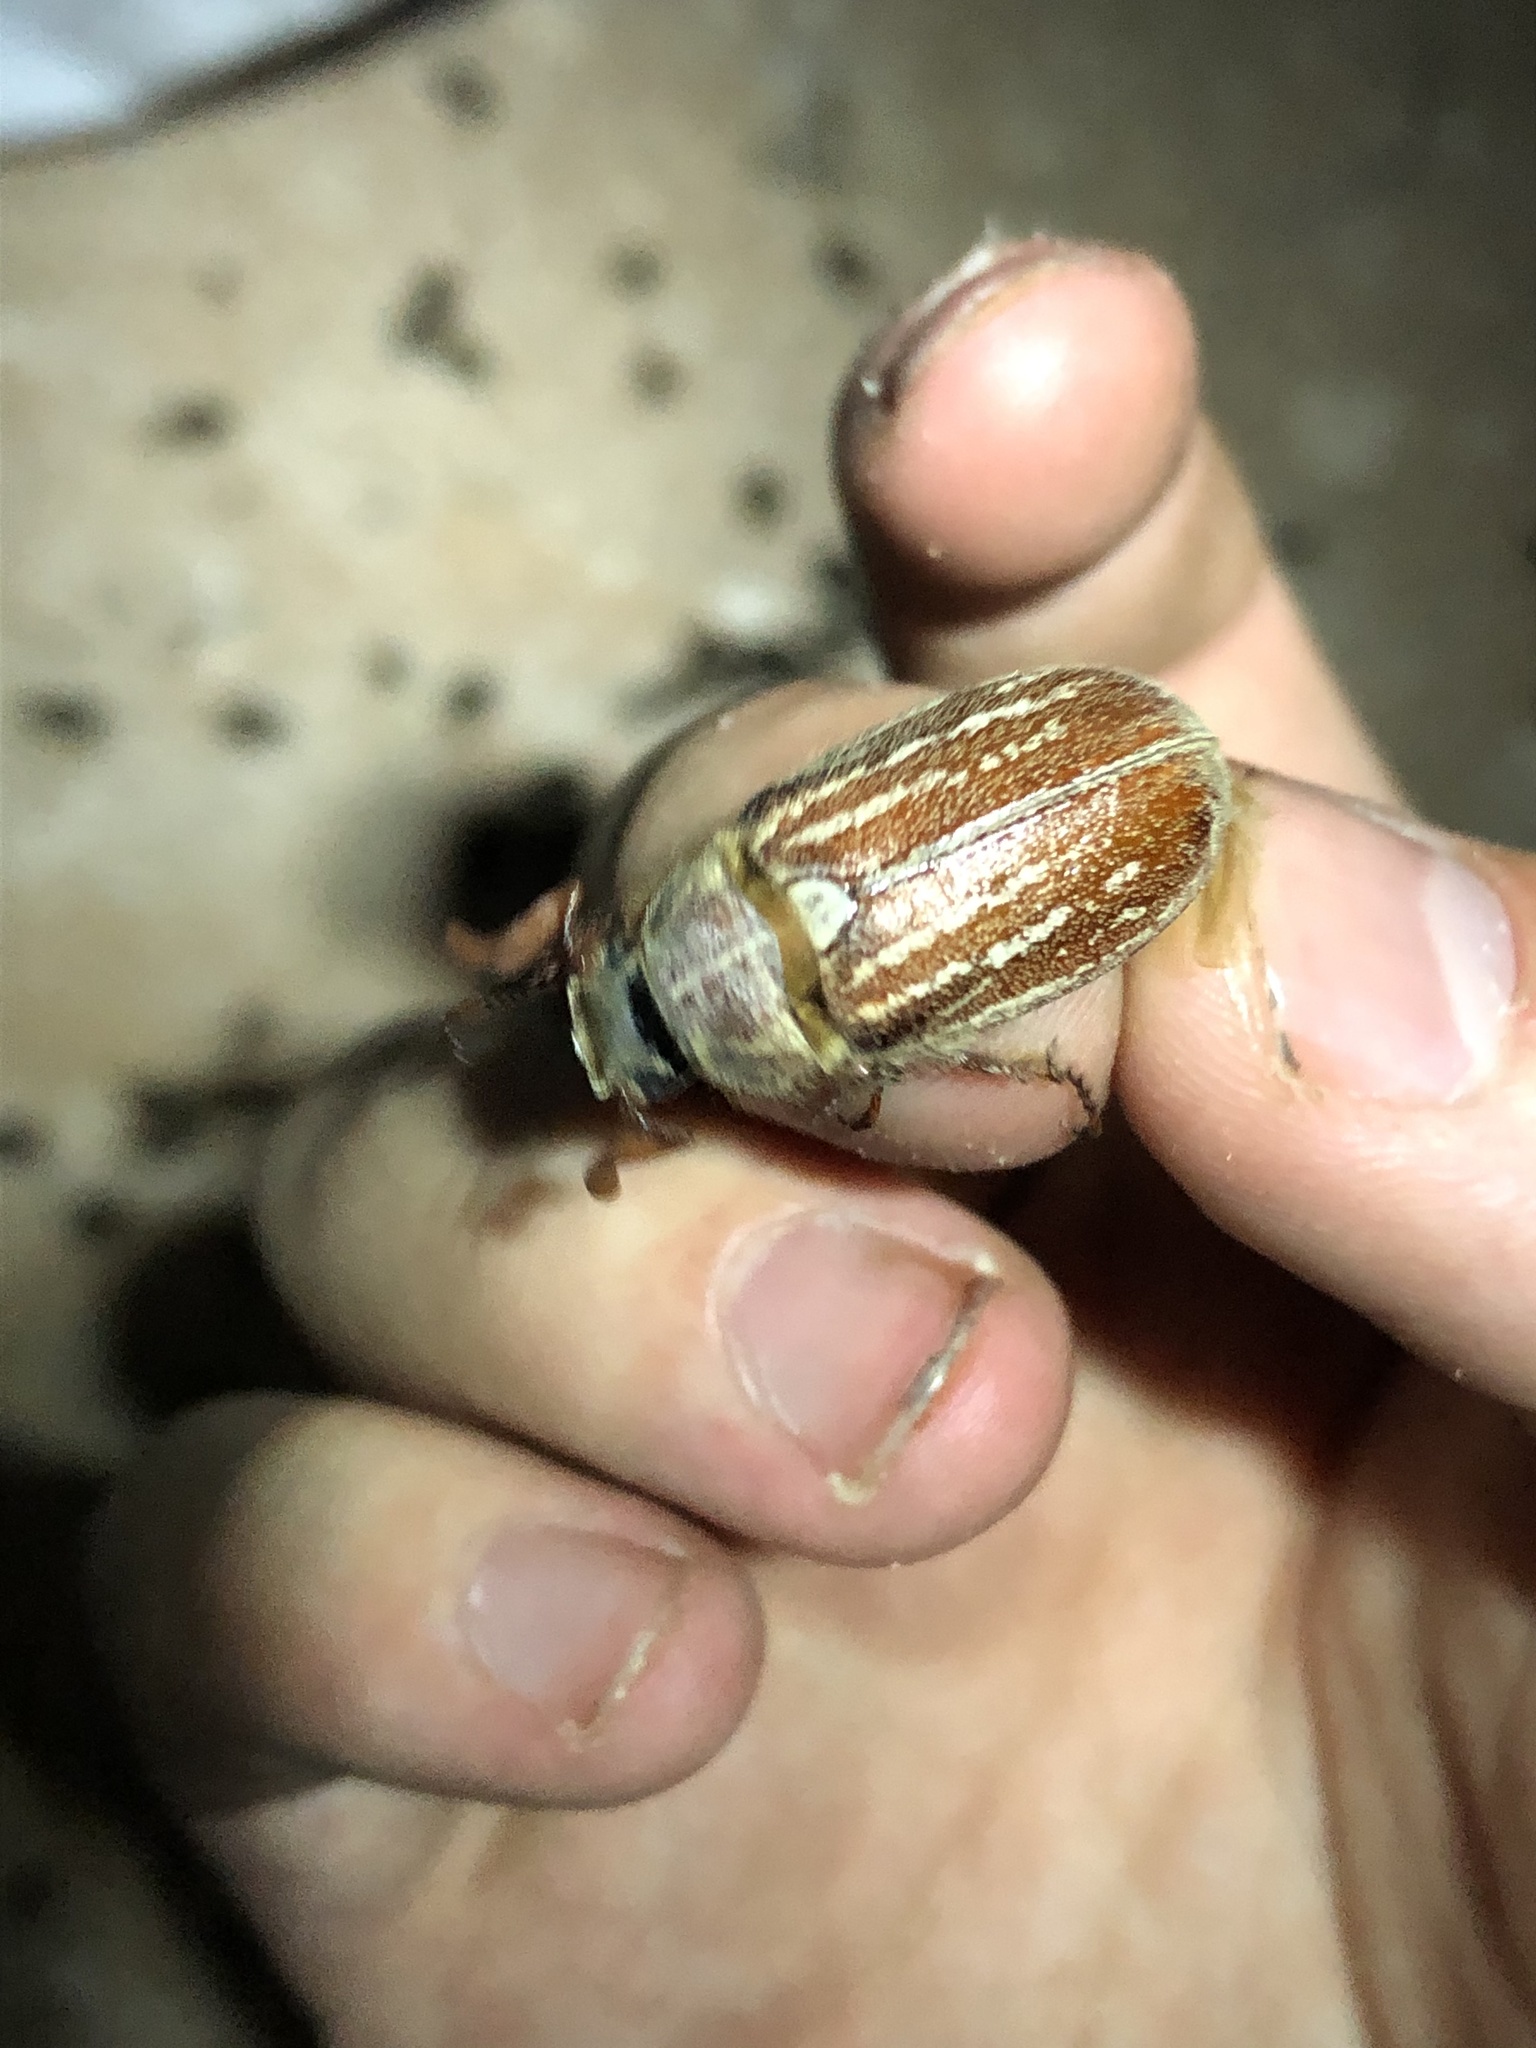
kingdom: Animalia
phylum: Arthropoda
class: Insecta
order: Coleoptera
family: Scarabaeidae
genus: Polyphylla
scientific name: Polyphylla mescalerensis
